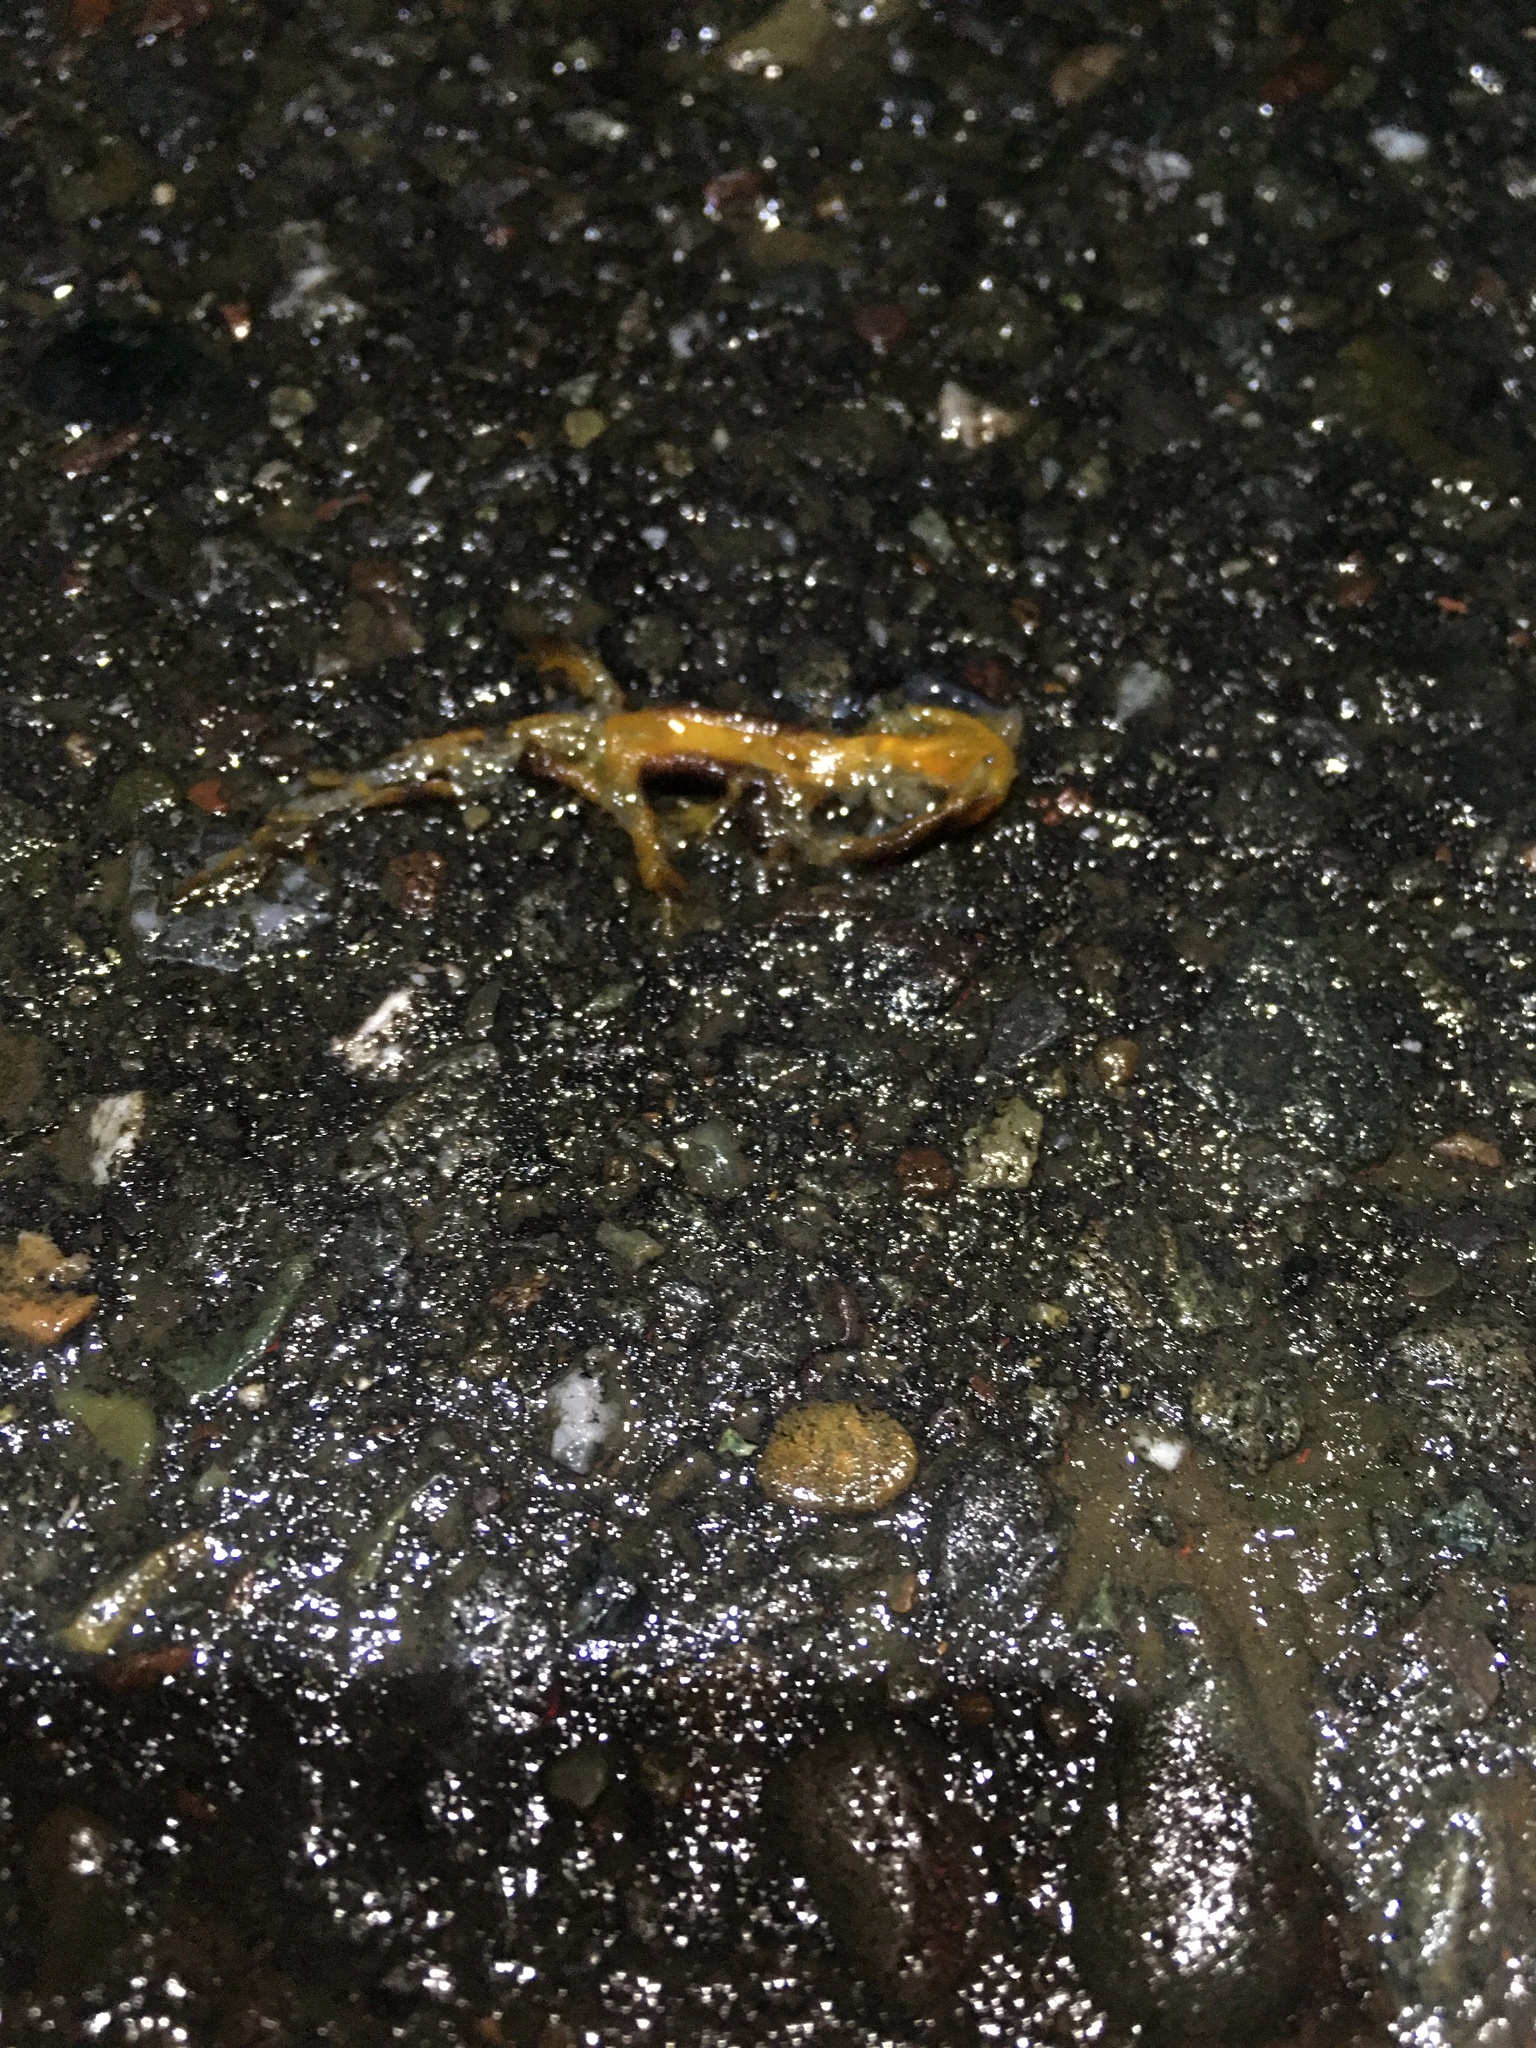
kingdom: Animalia
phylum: Chordata
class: Amphibia
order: Caudata
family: Salamandridae
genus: Taricha
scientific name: Taricha
